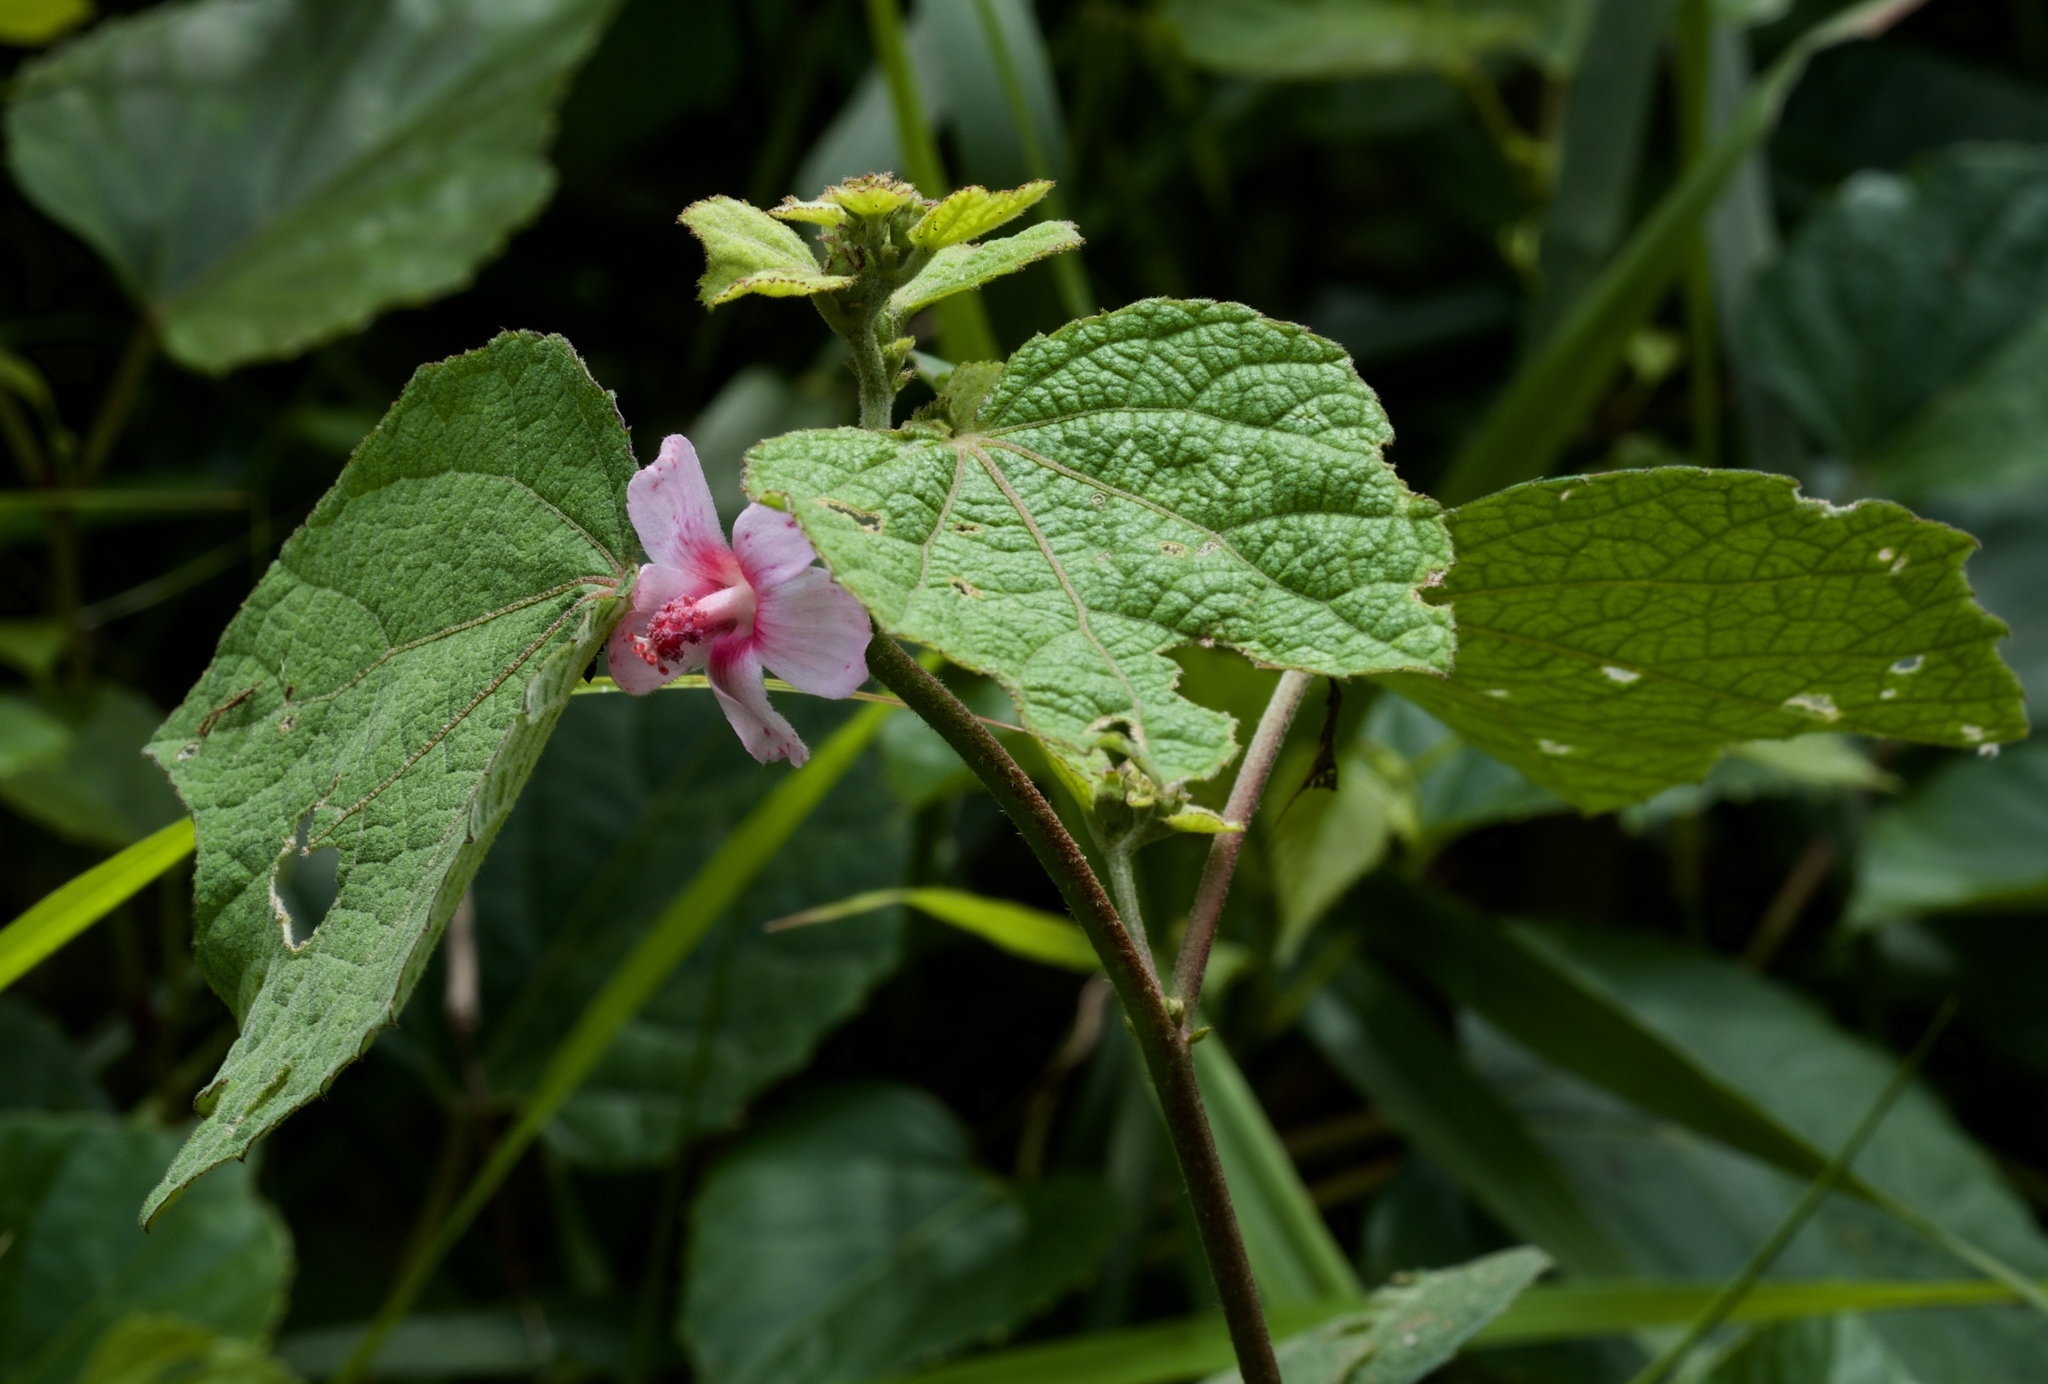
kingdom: Plantae
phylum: Tracheophyta
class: Magnoliopsida
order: Malvales
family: Malvaceae
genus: Urena
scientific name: Urena lobata
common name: Caesarweed
